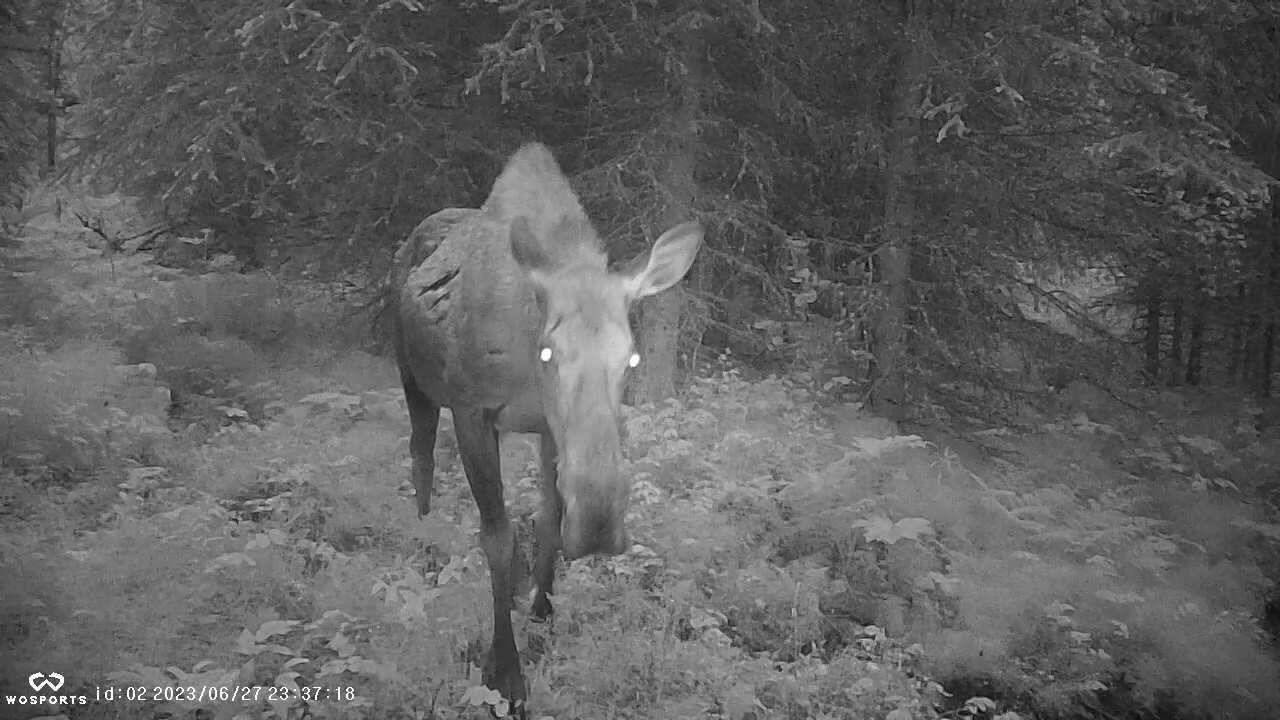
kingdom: Animalia
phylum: Chordata
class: Mammalia
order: Artiodactyla
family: Cervidae
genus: Alces
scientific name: Alces alces
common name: Moose
